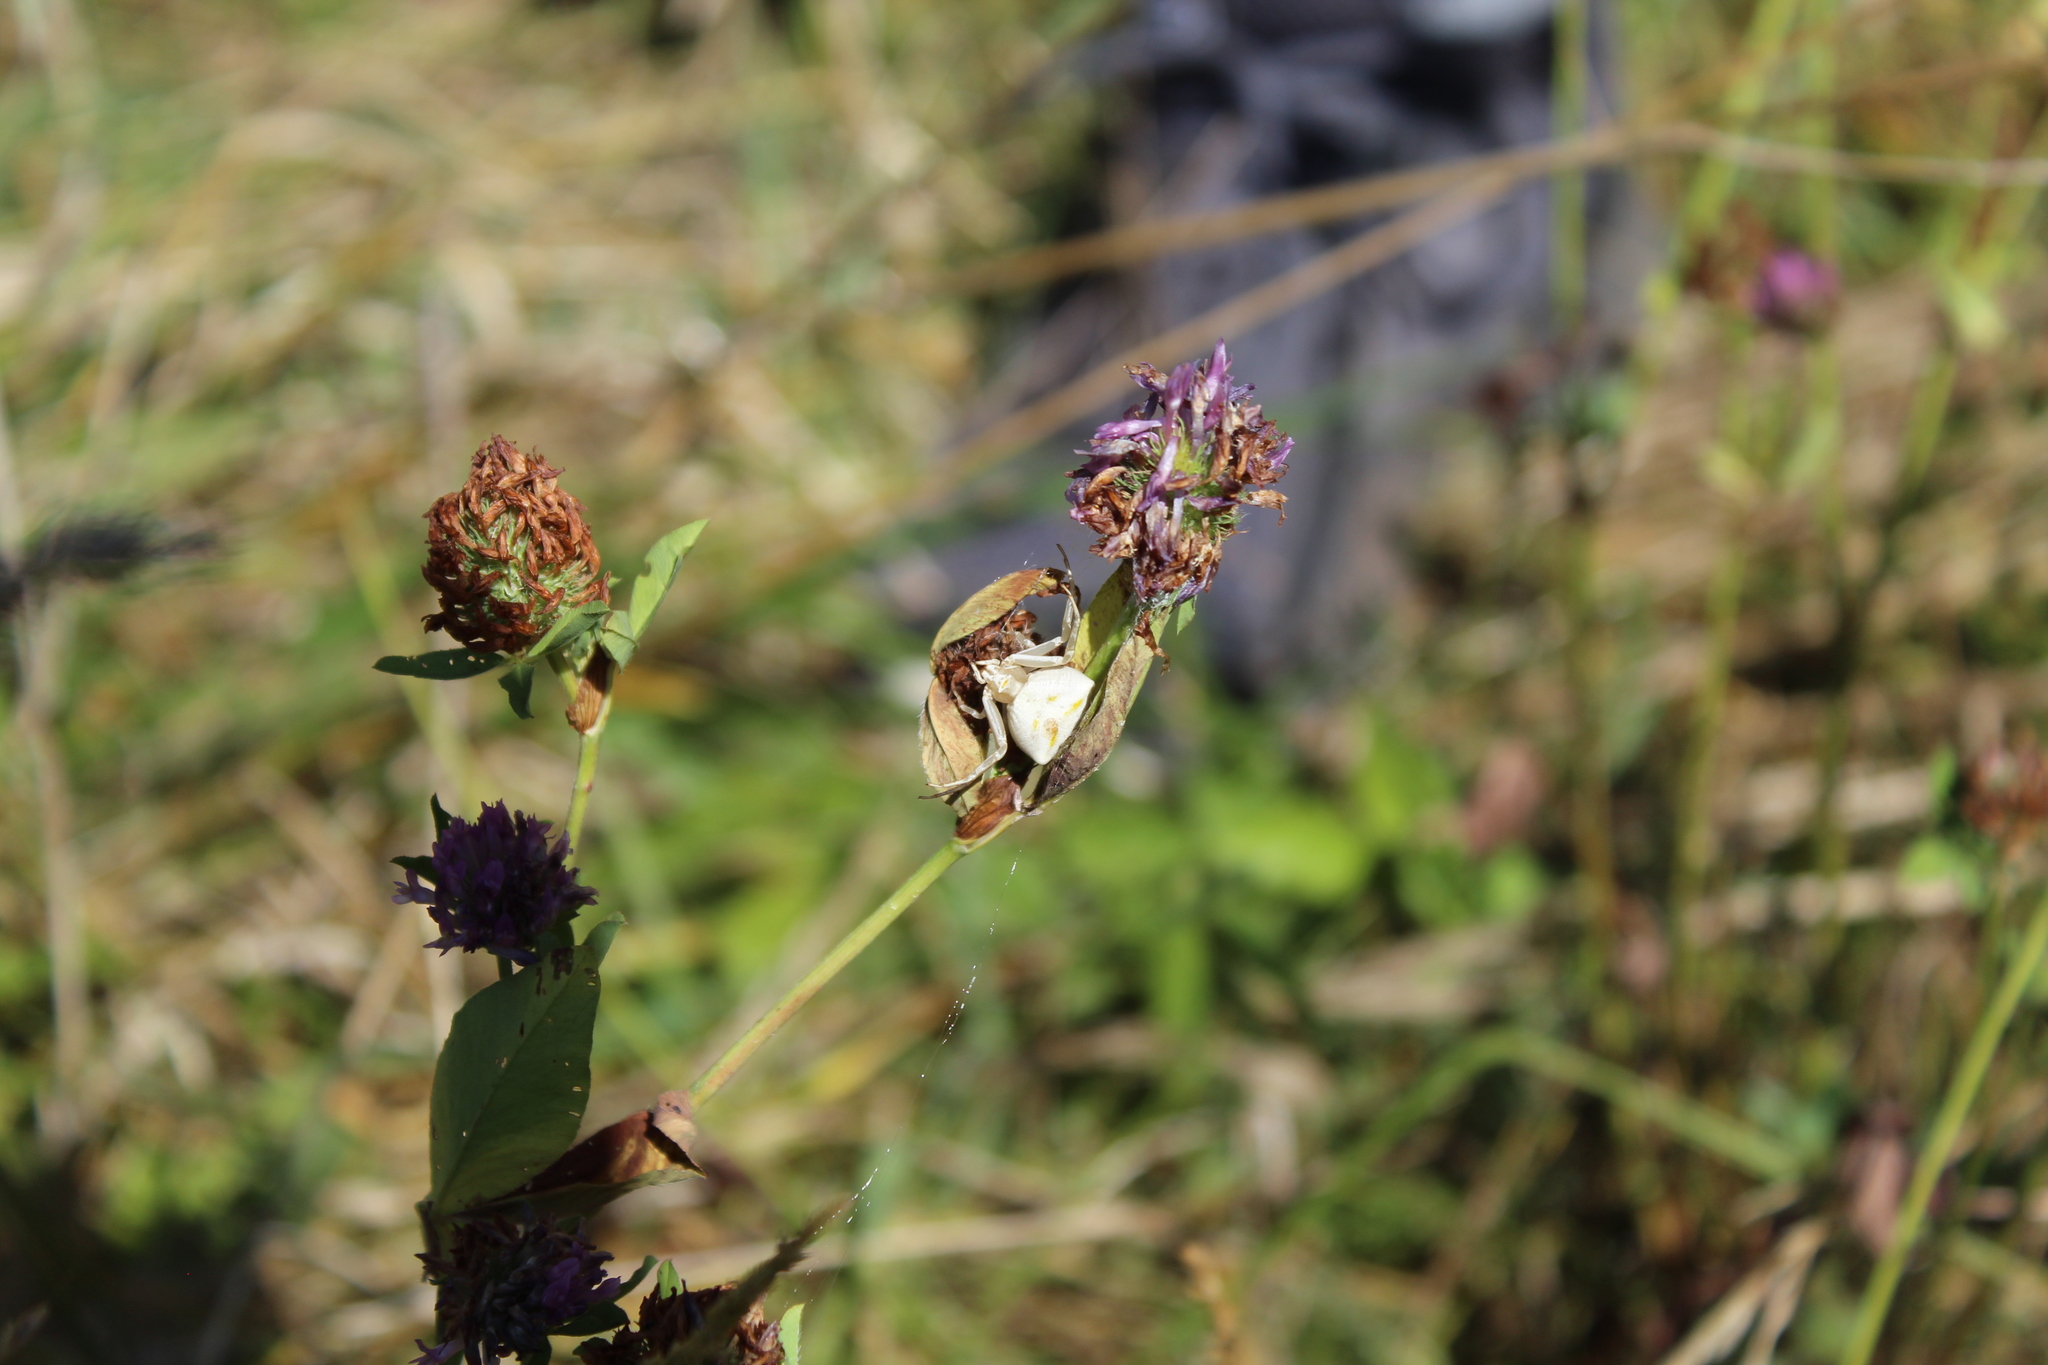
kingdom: Animalia
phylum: Arthropoda
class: Arachnida
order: Araneae
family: Thomisidae
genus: Thomisus
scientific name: Thomisus onustus
